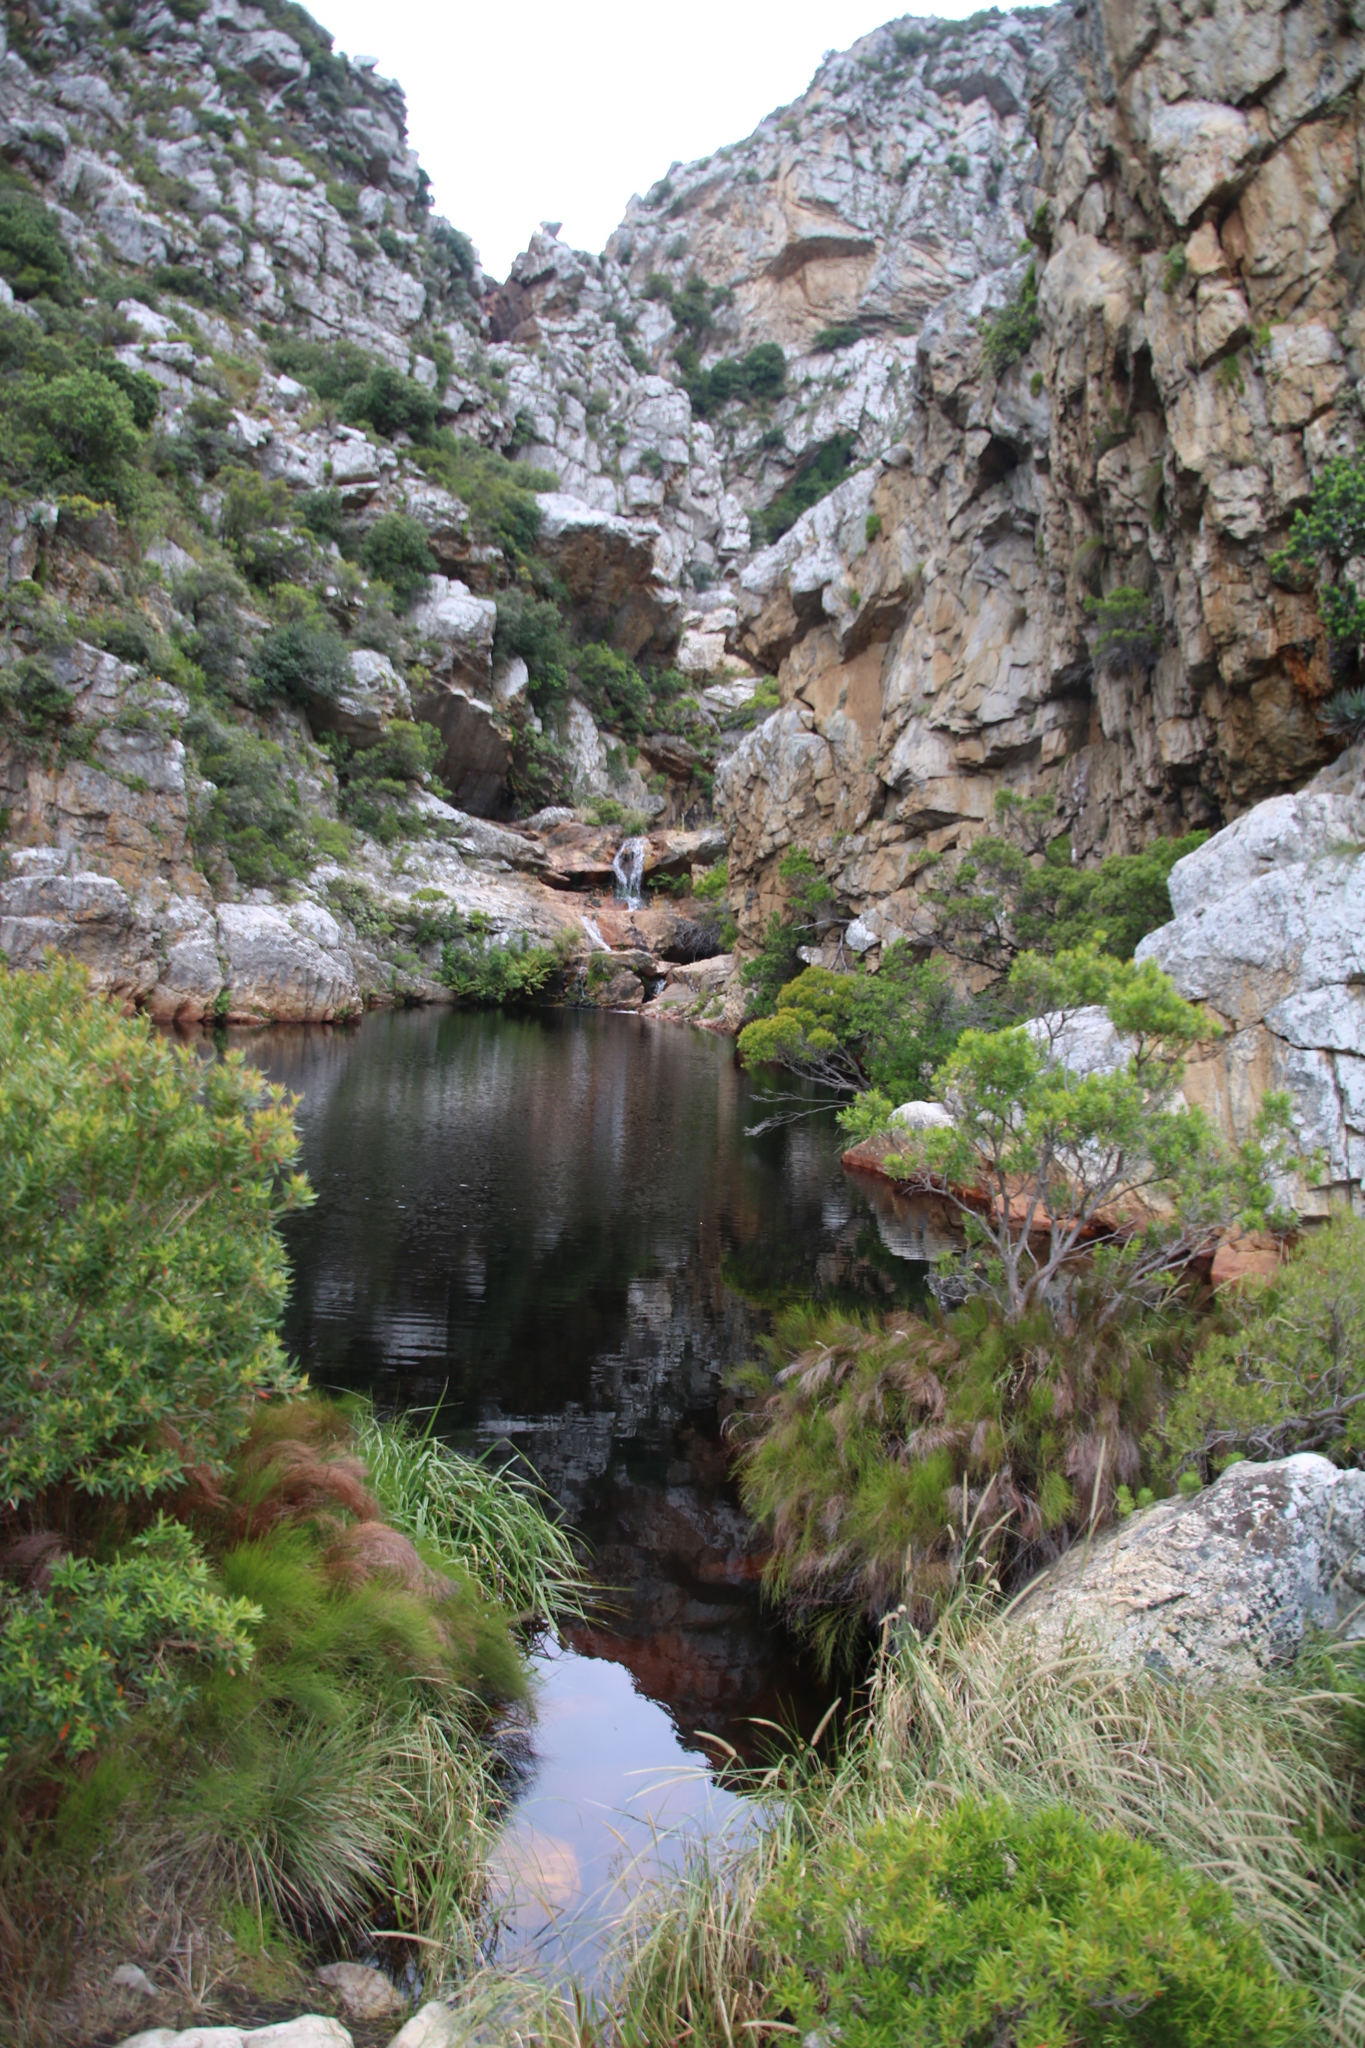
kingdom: Plantae
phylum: Tracheophyta
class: Liliopsida
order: Poales
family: Thurniaceae
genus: Prionium
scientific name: Prionium serratum
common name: Palmiet
